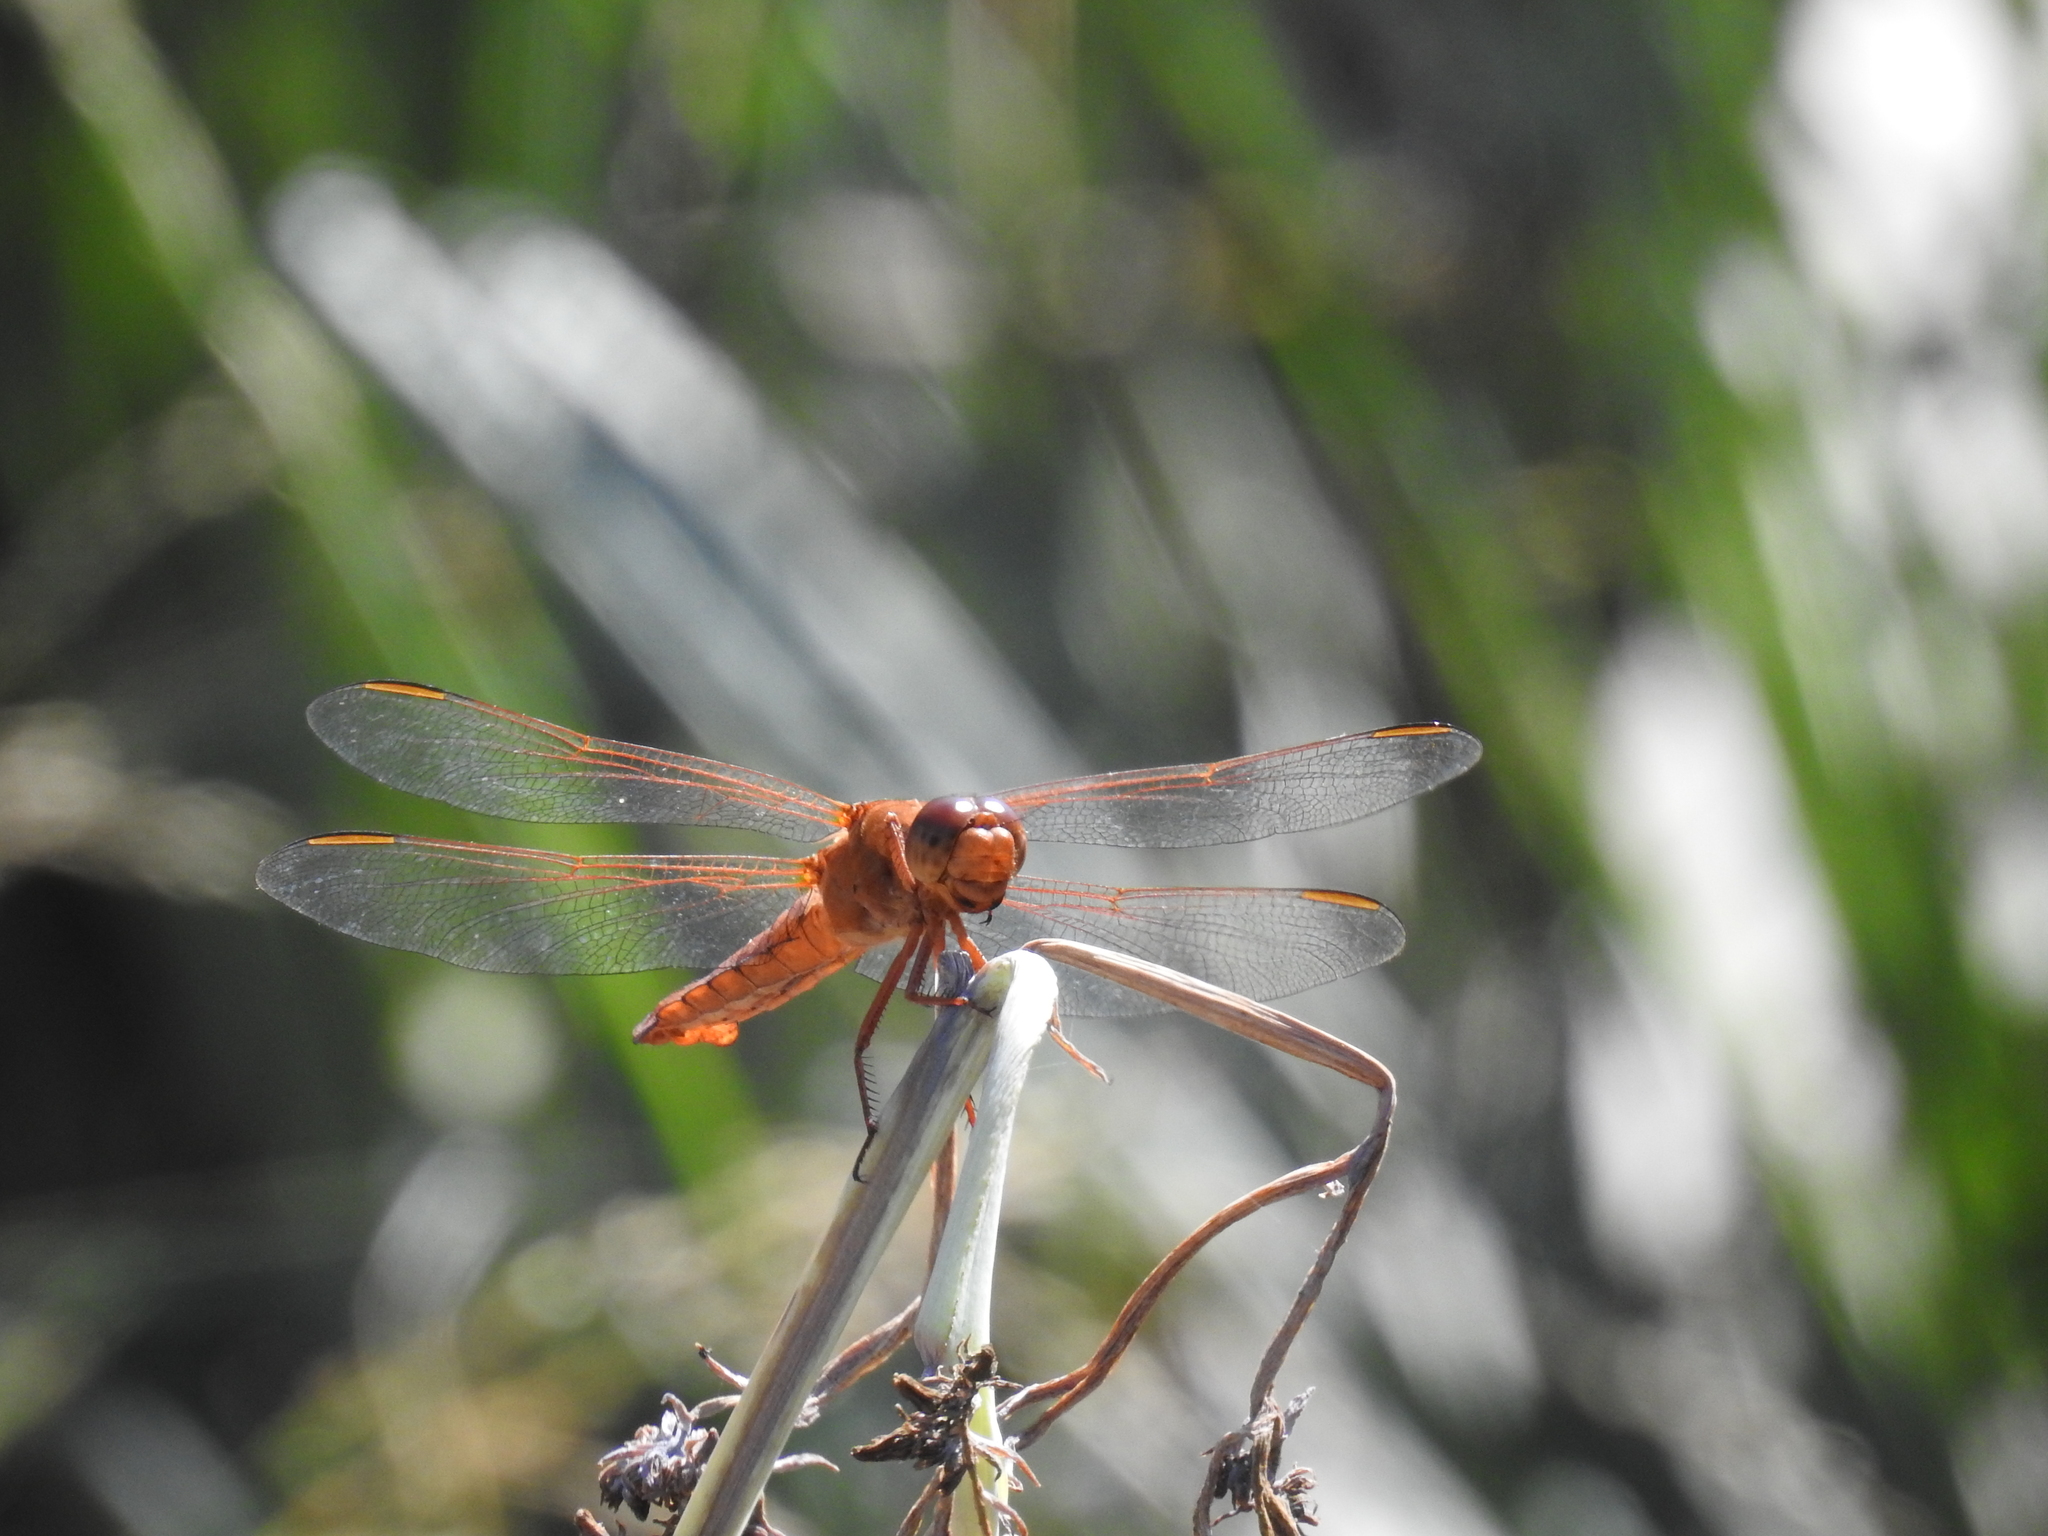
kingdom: Animalia
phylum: Arthropoda
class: Insecta
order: Odonata
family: Libellulidae
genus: Libellula
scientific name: Libellula croceipennis
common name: Neon skimmer
